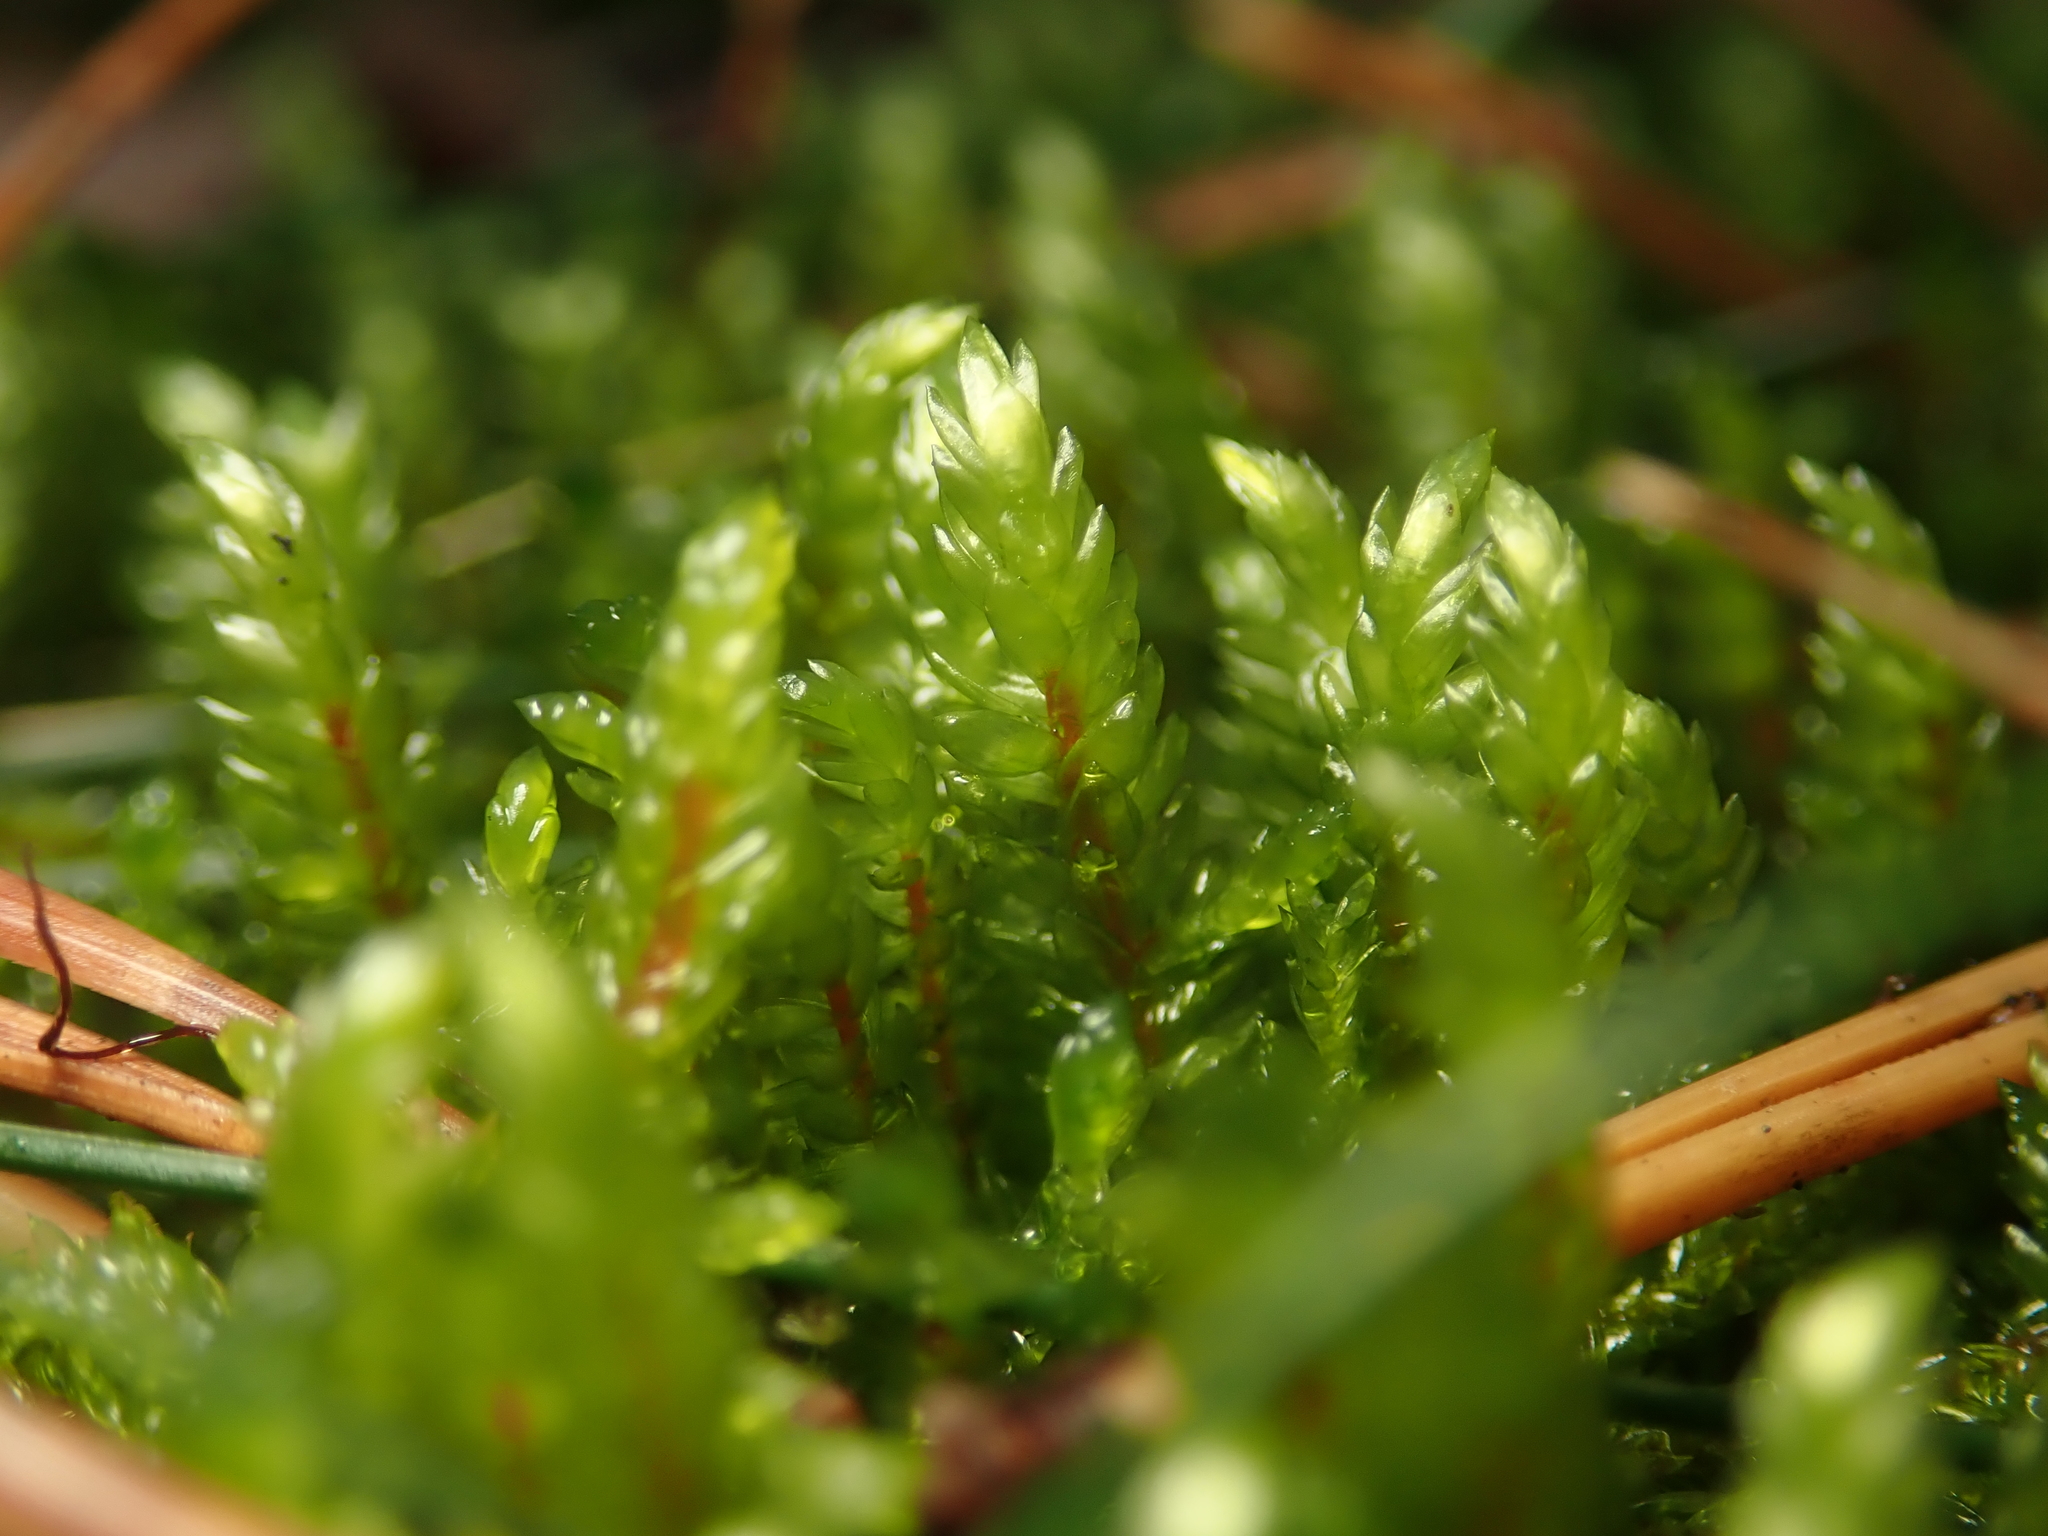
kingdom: Plantae
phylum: Bryophyta
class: Bryopsida
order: Hypnales
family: Hylocomiaceae
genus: Pleurozium
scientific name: Pleurozium schreberi
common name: Red-stemmed feather moss
